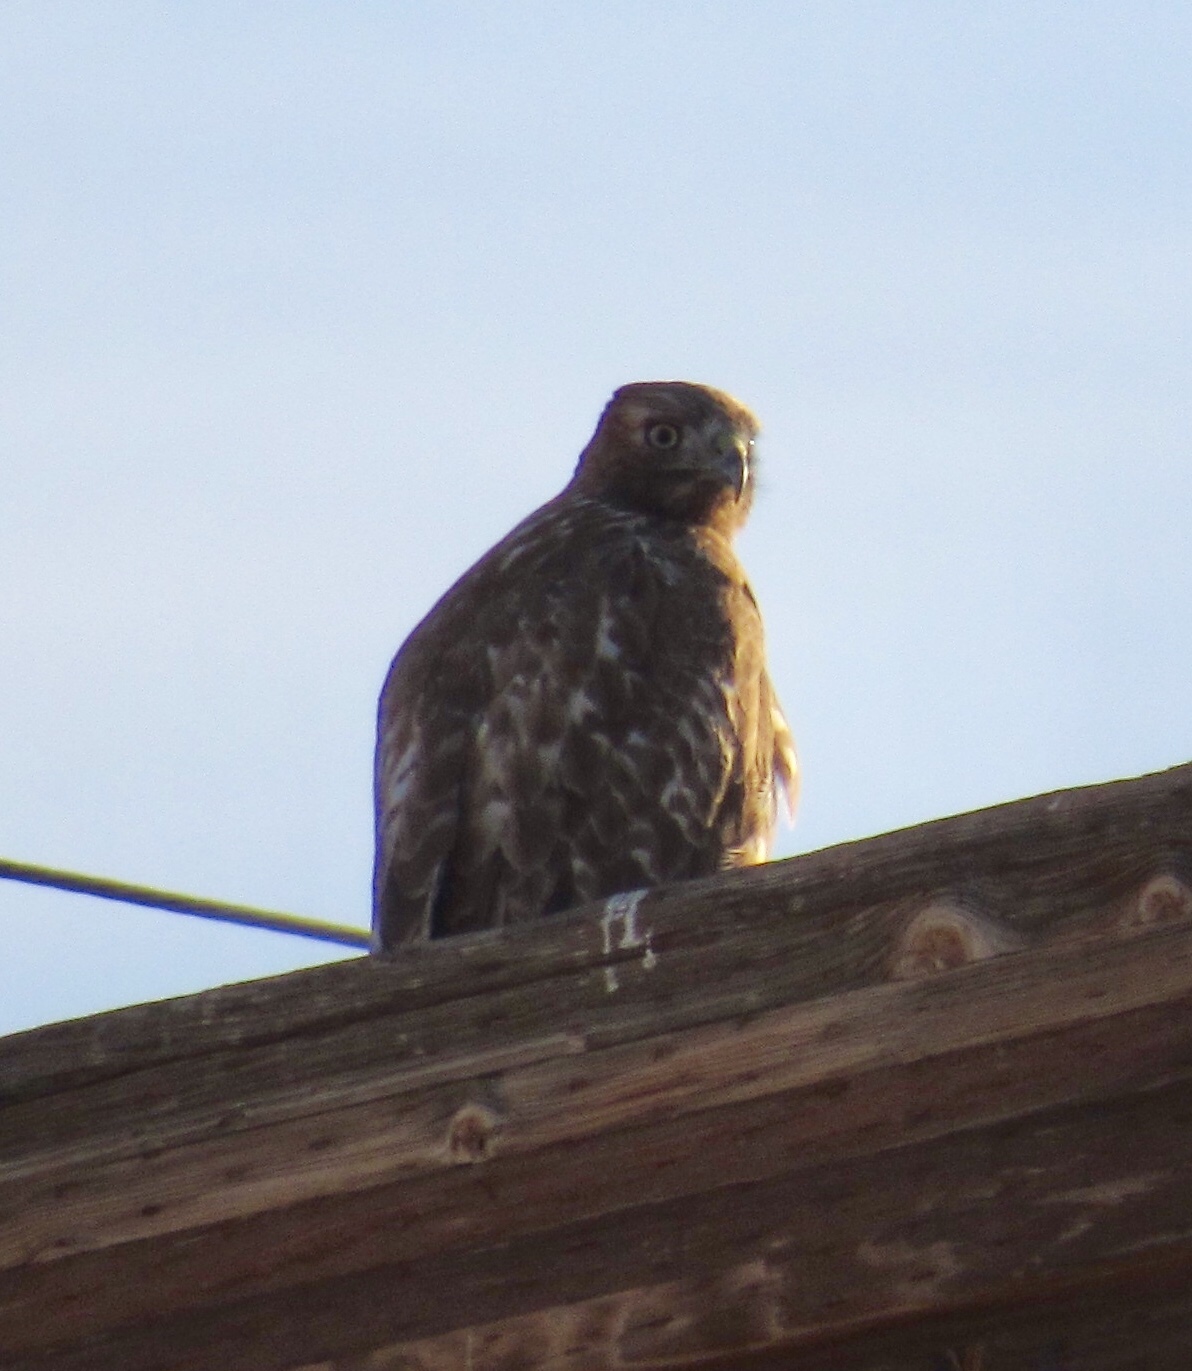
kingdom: Animalia
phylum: Chordata
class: Aves
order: Accipitriformes
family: Accipitridae
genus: Buteo
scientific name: Buteo jamaicensis
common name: Red-tailed hawk
